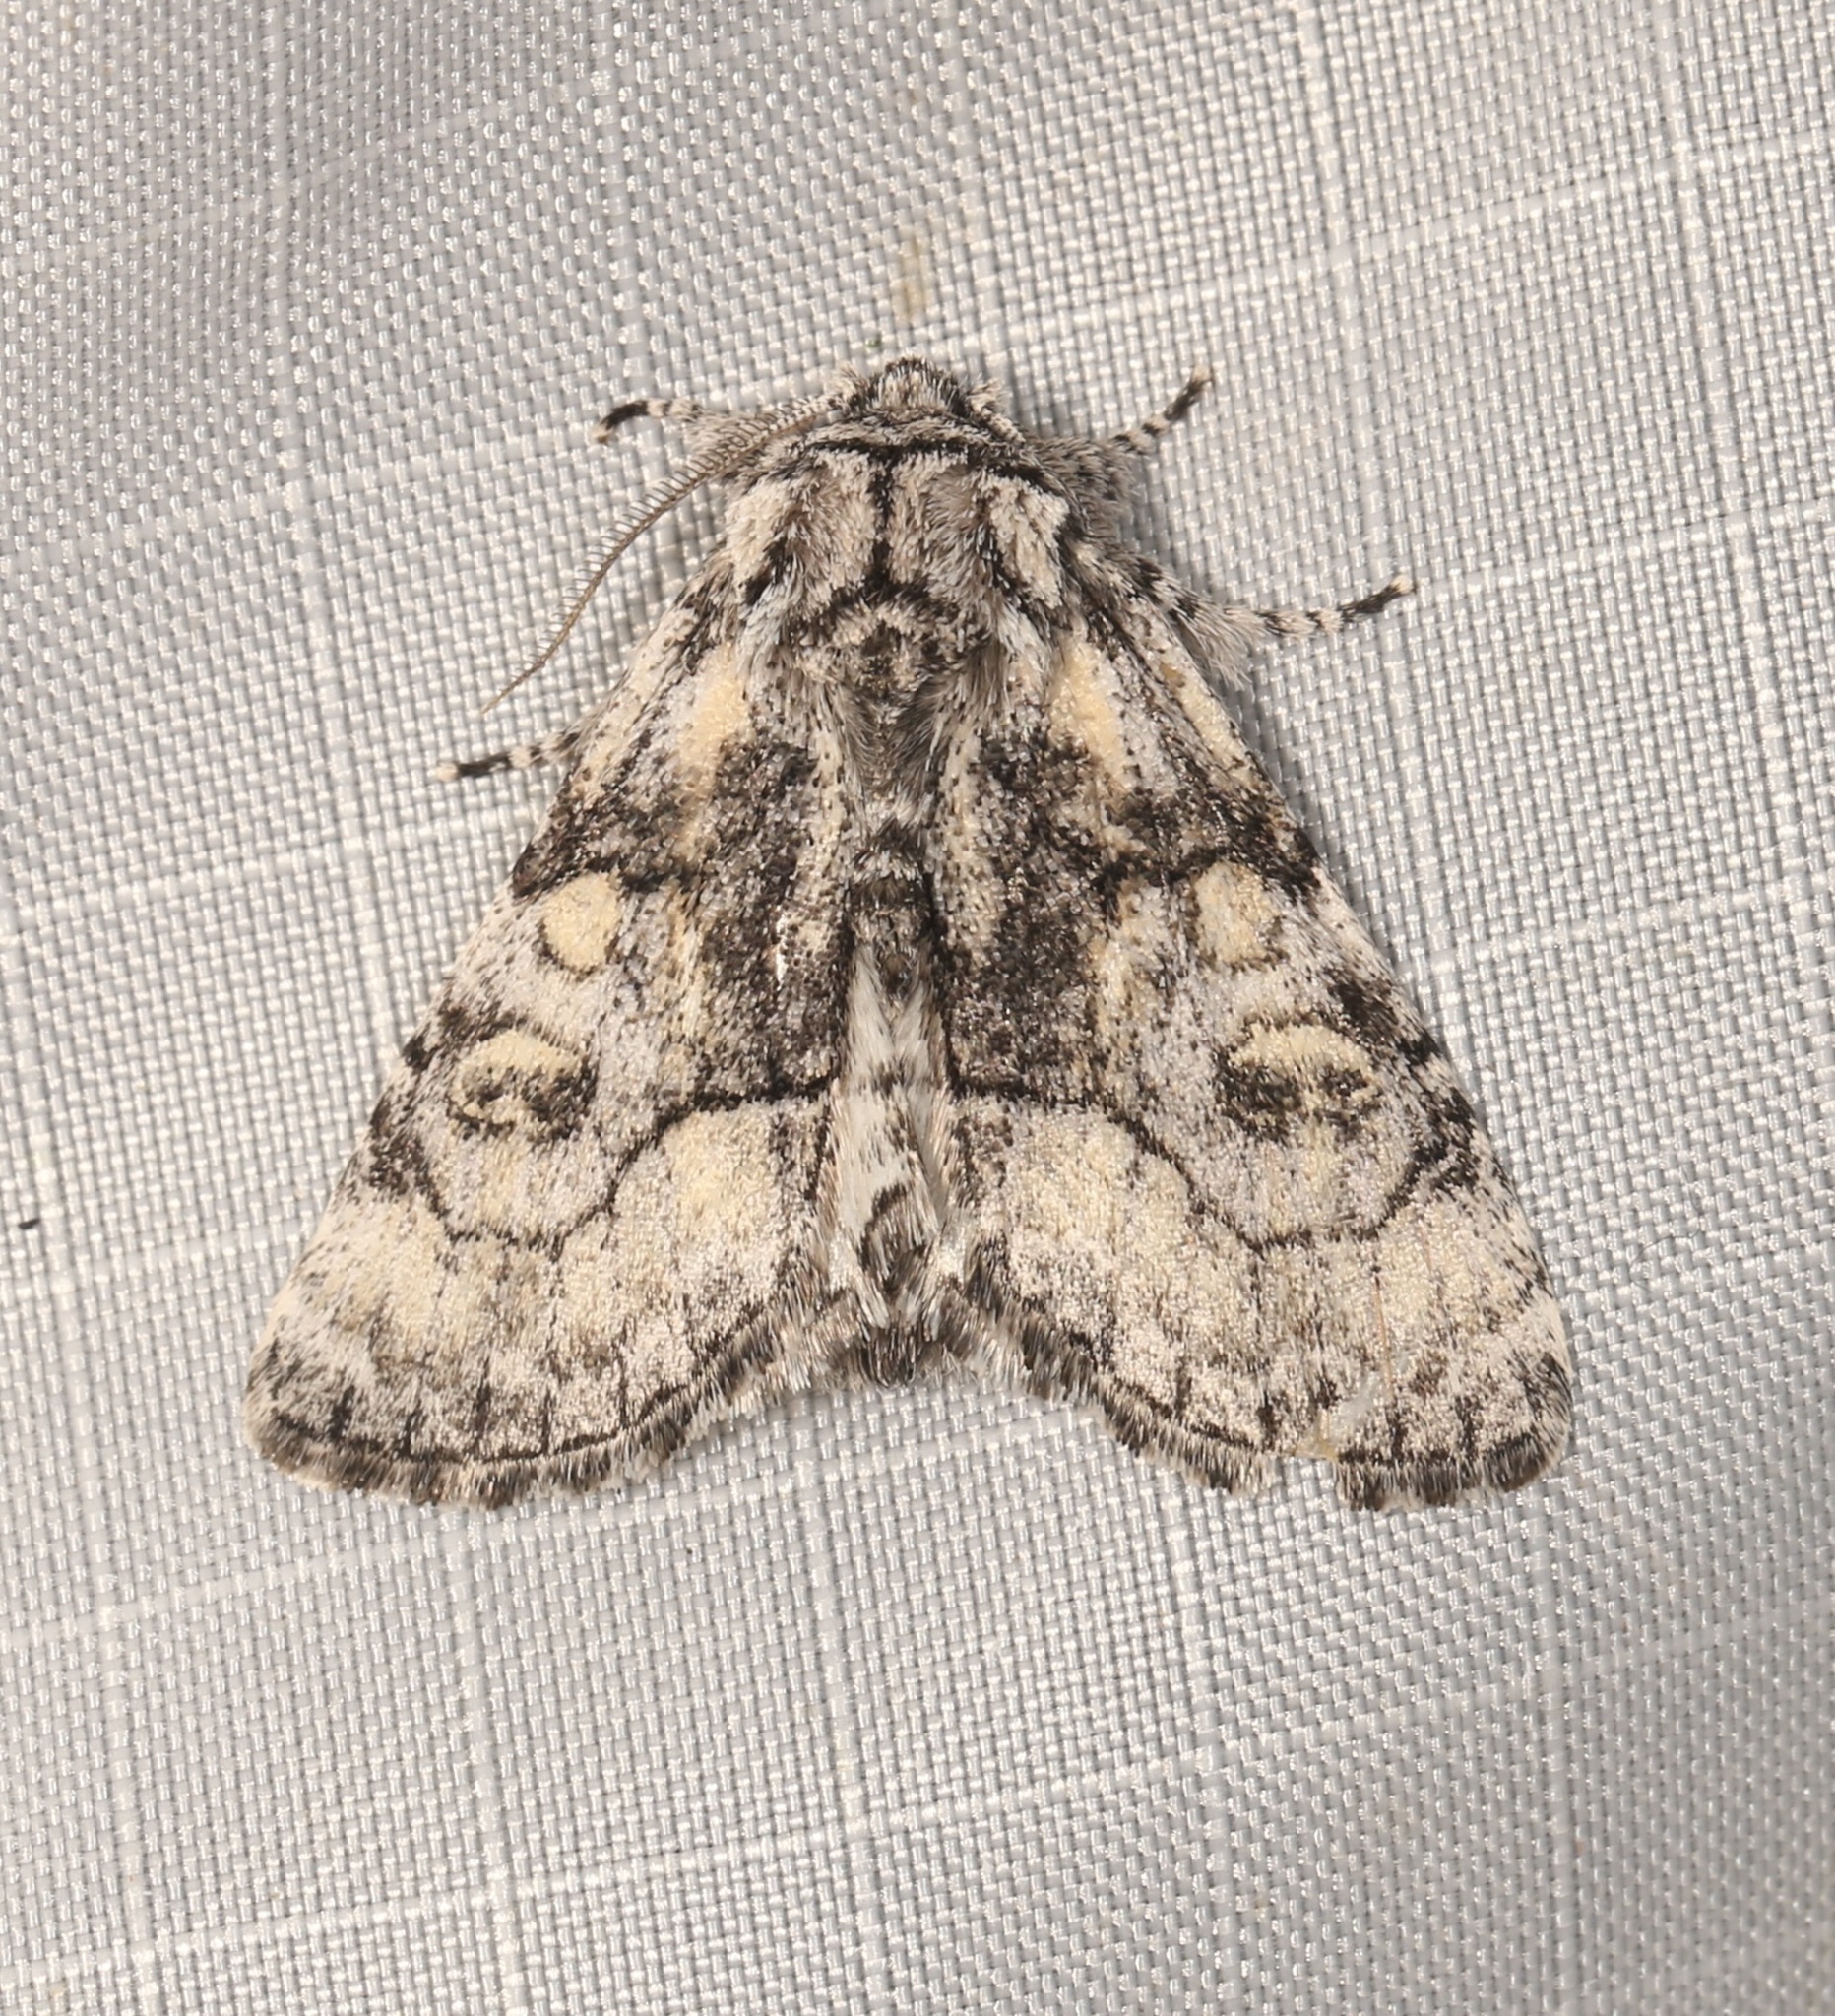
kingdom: Animalia
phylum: Arthropoda
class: Insecta
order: Lepidoptera
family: Noctuidae
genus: Raphia
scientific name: Raphia frater
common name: Brother
